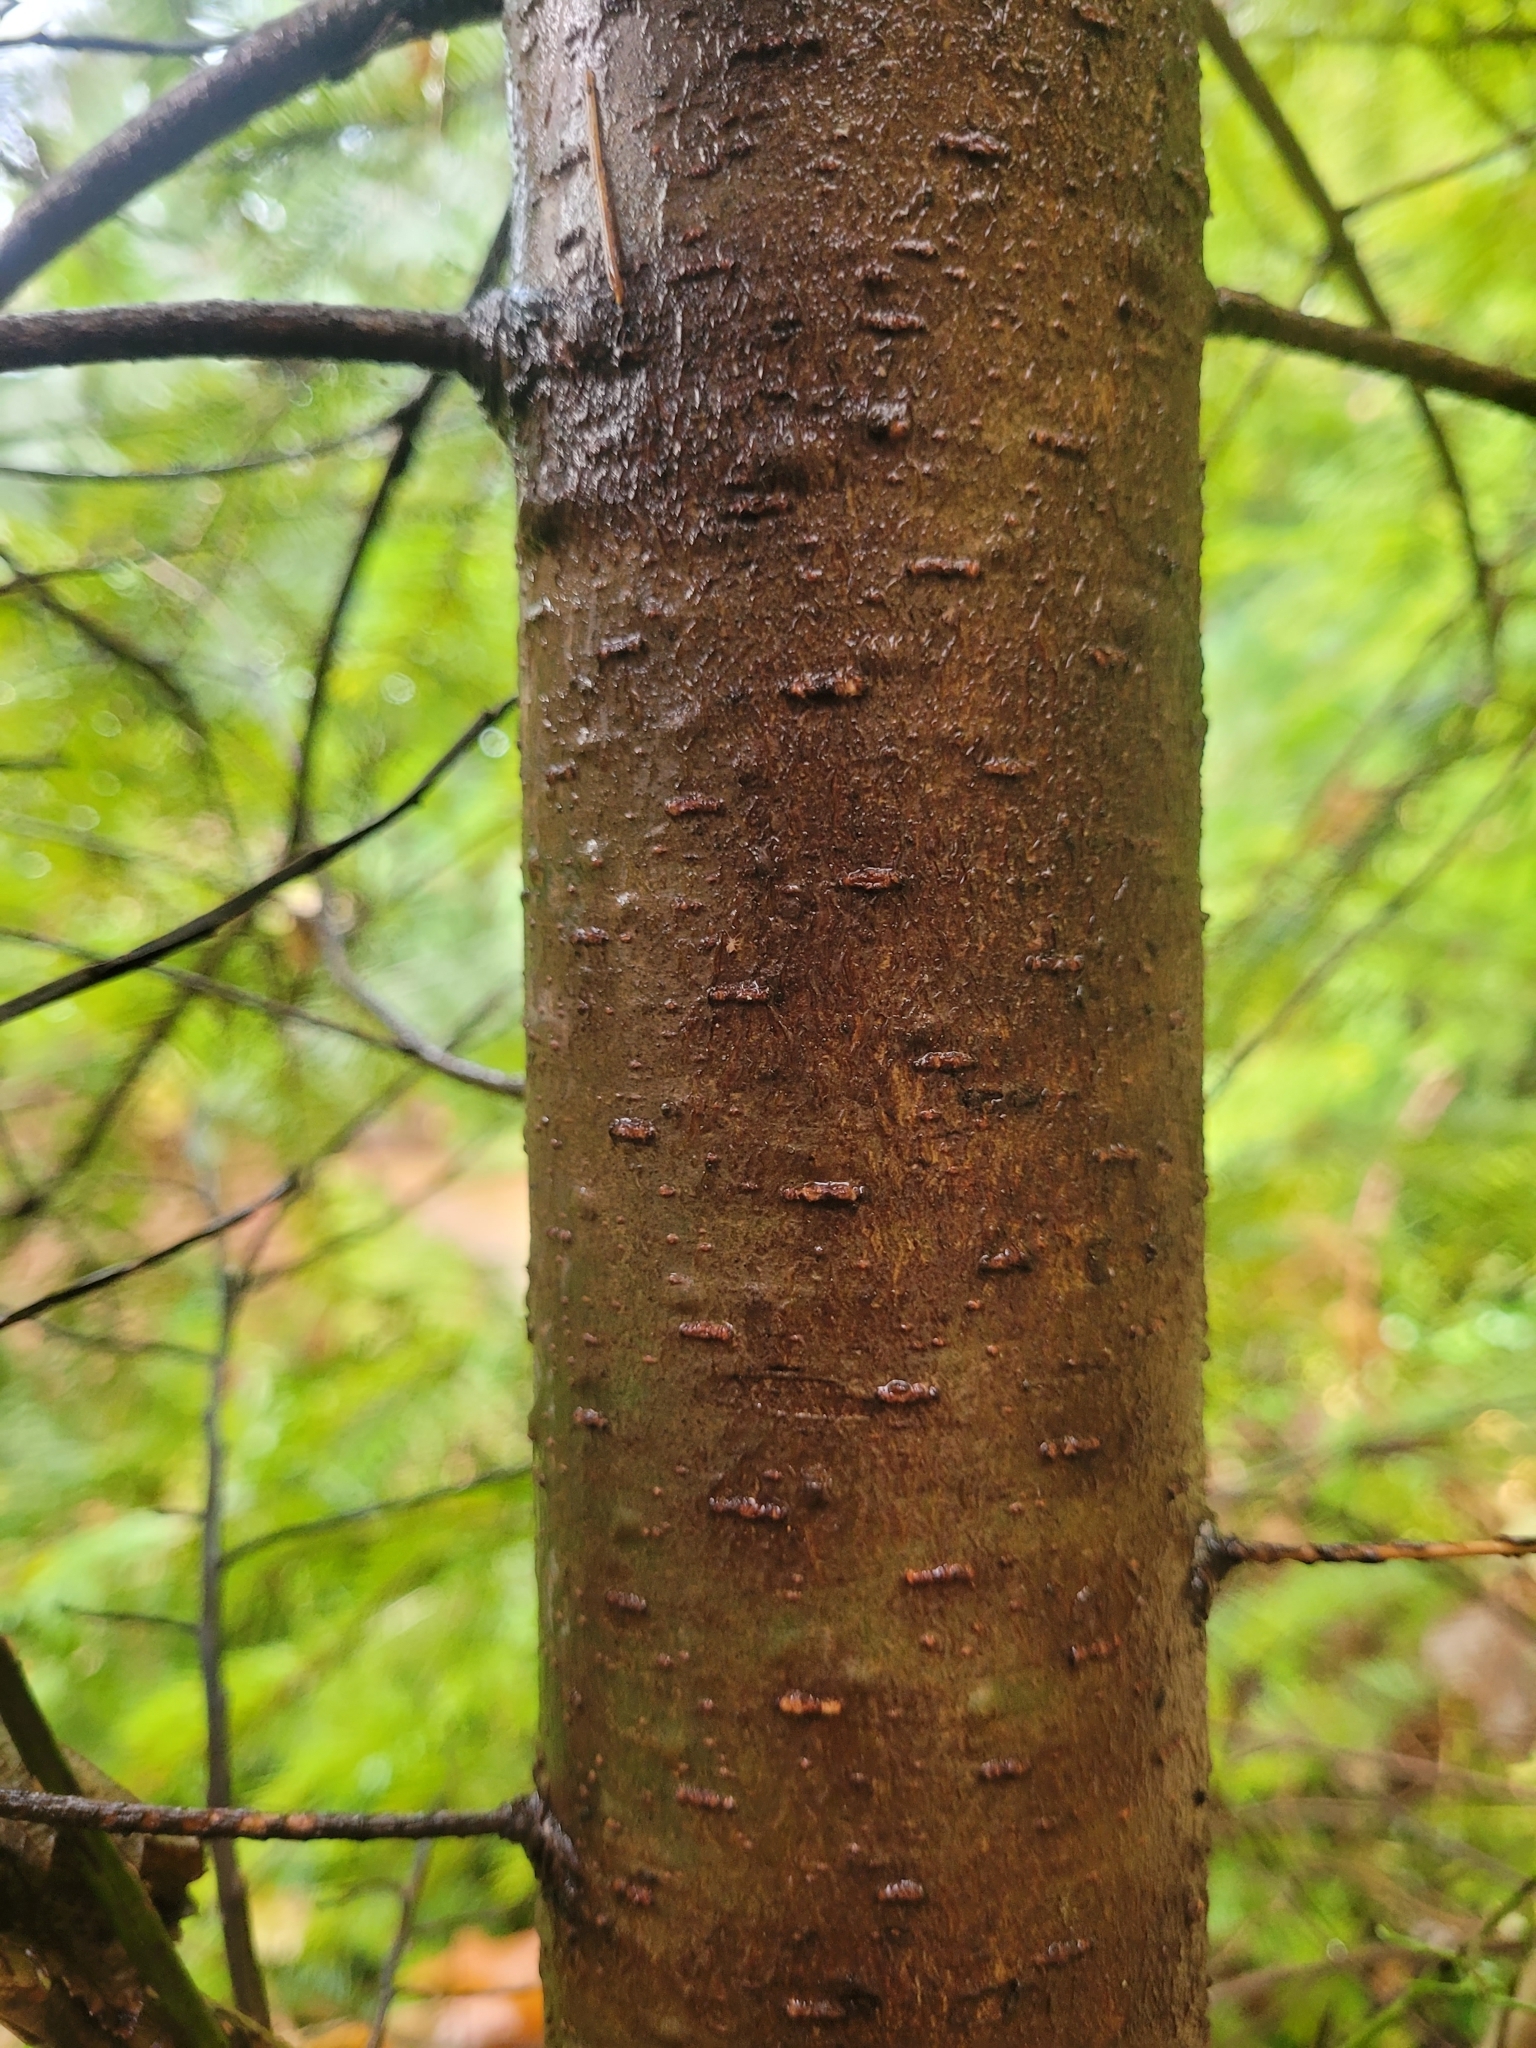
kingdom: Plantae
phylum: Tracheophyta
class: Pinopsida
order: Pinales
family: Pinaceae
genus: Pseudotsuga
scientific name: Pseudotsuga menziesii
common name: Douglas fir
